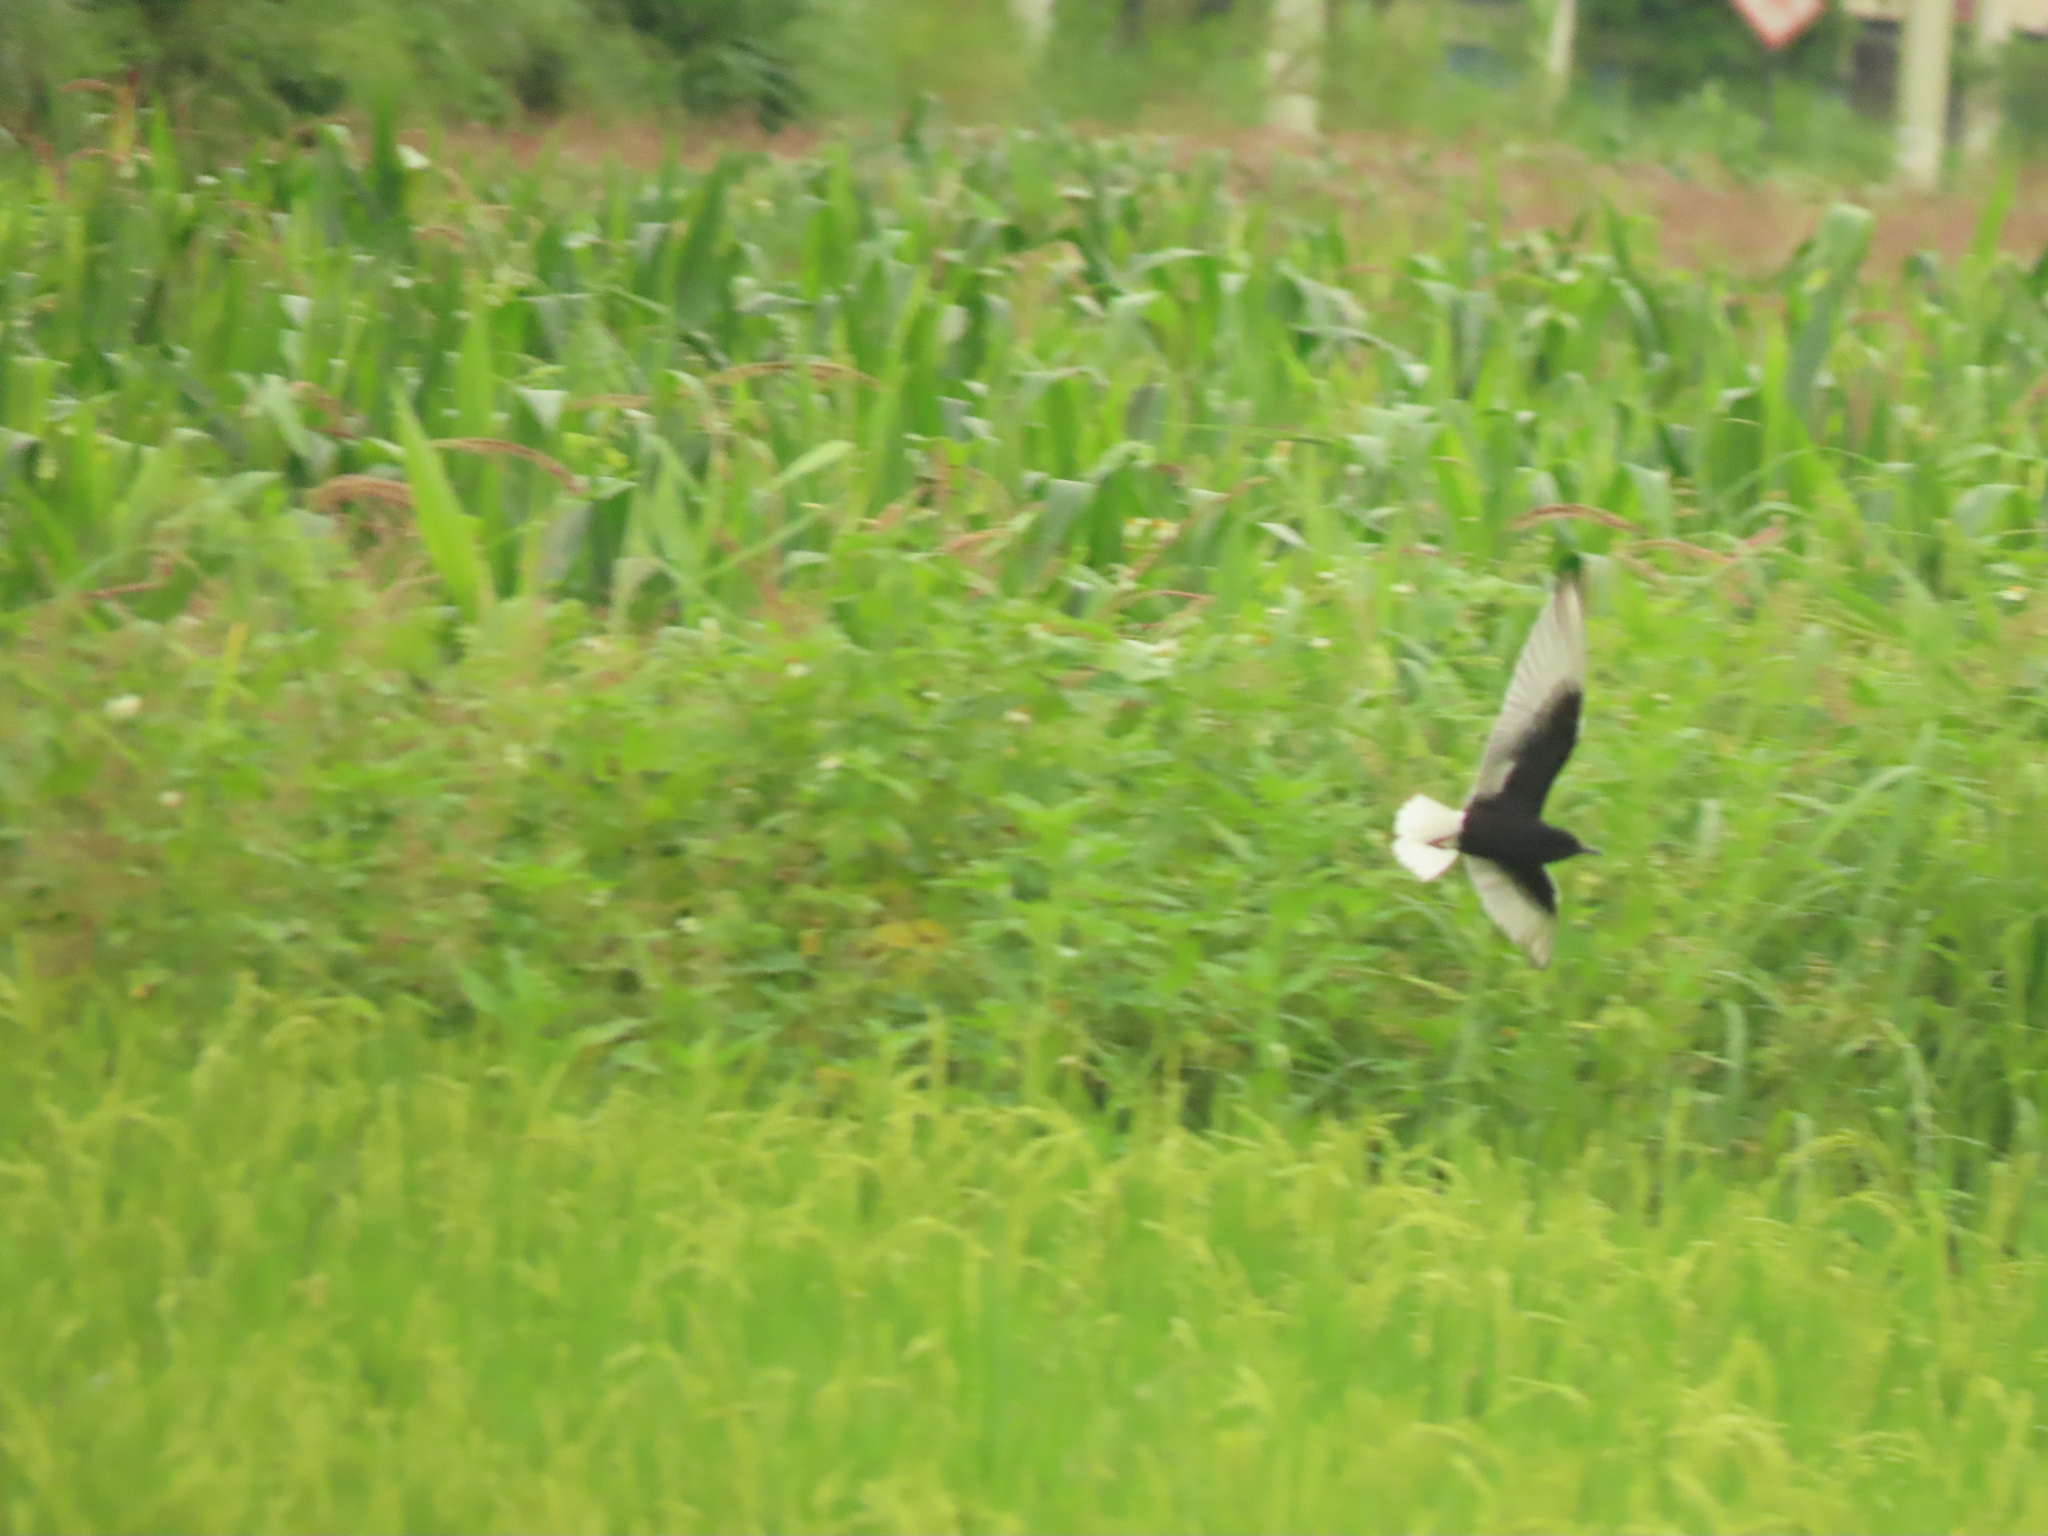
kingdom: Animalia
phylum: Chordata
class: Aves
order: Charadriiformes
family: Laridae
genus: Chlidonias
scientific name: Chlidonias leucopterus
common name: White-winged tern
